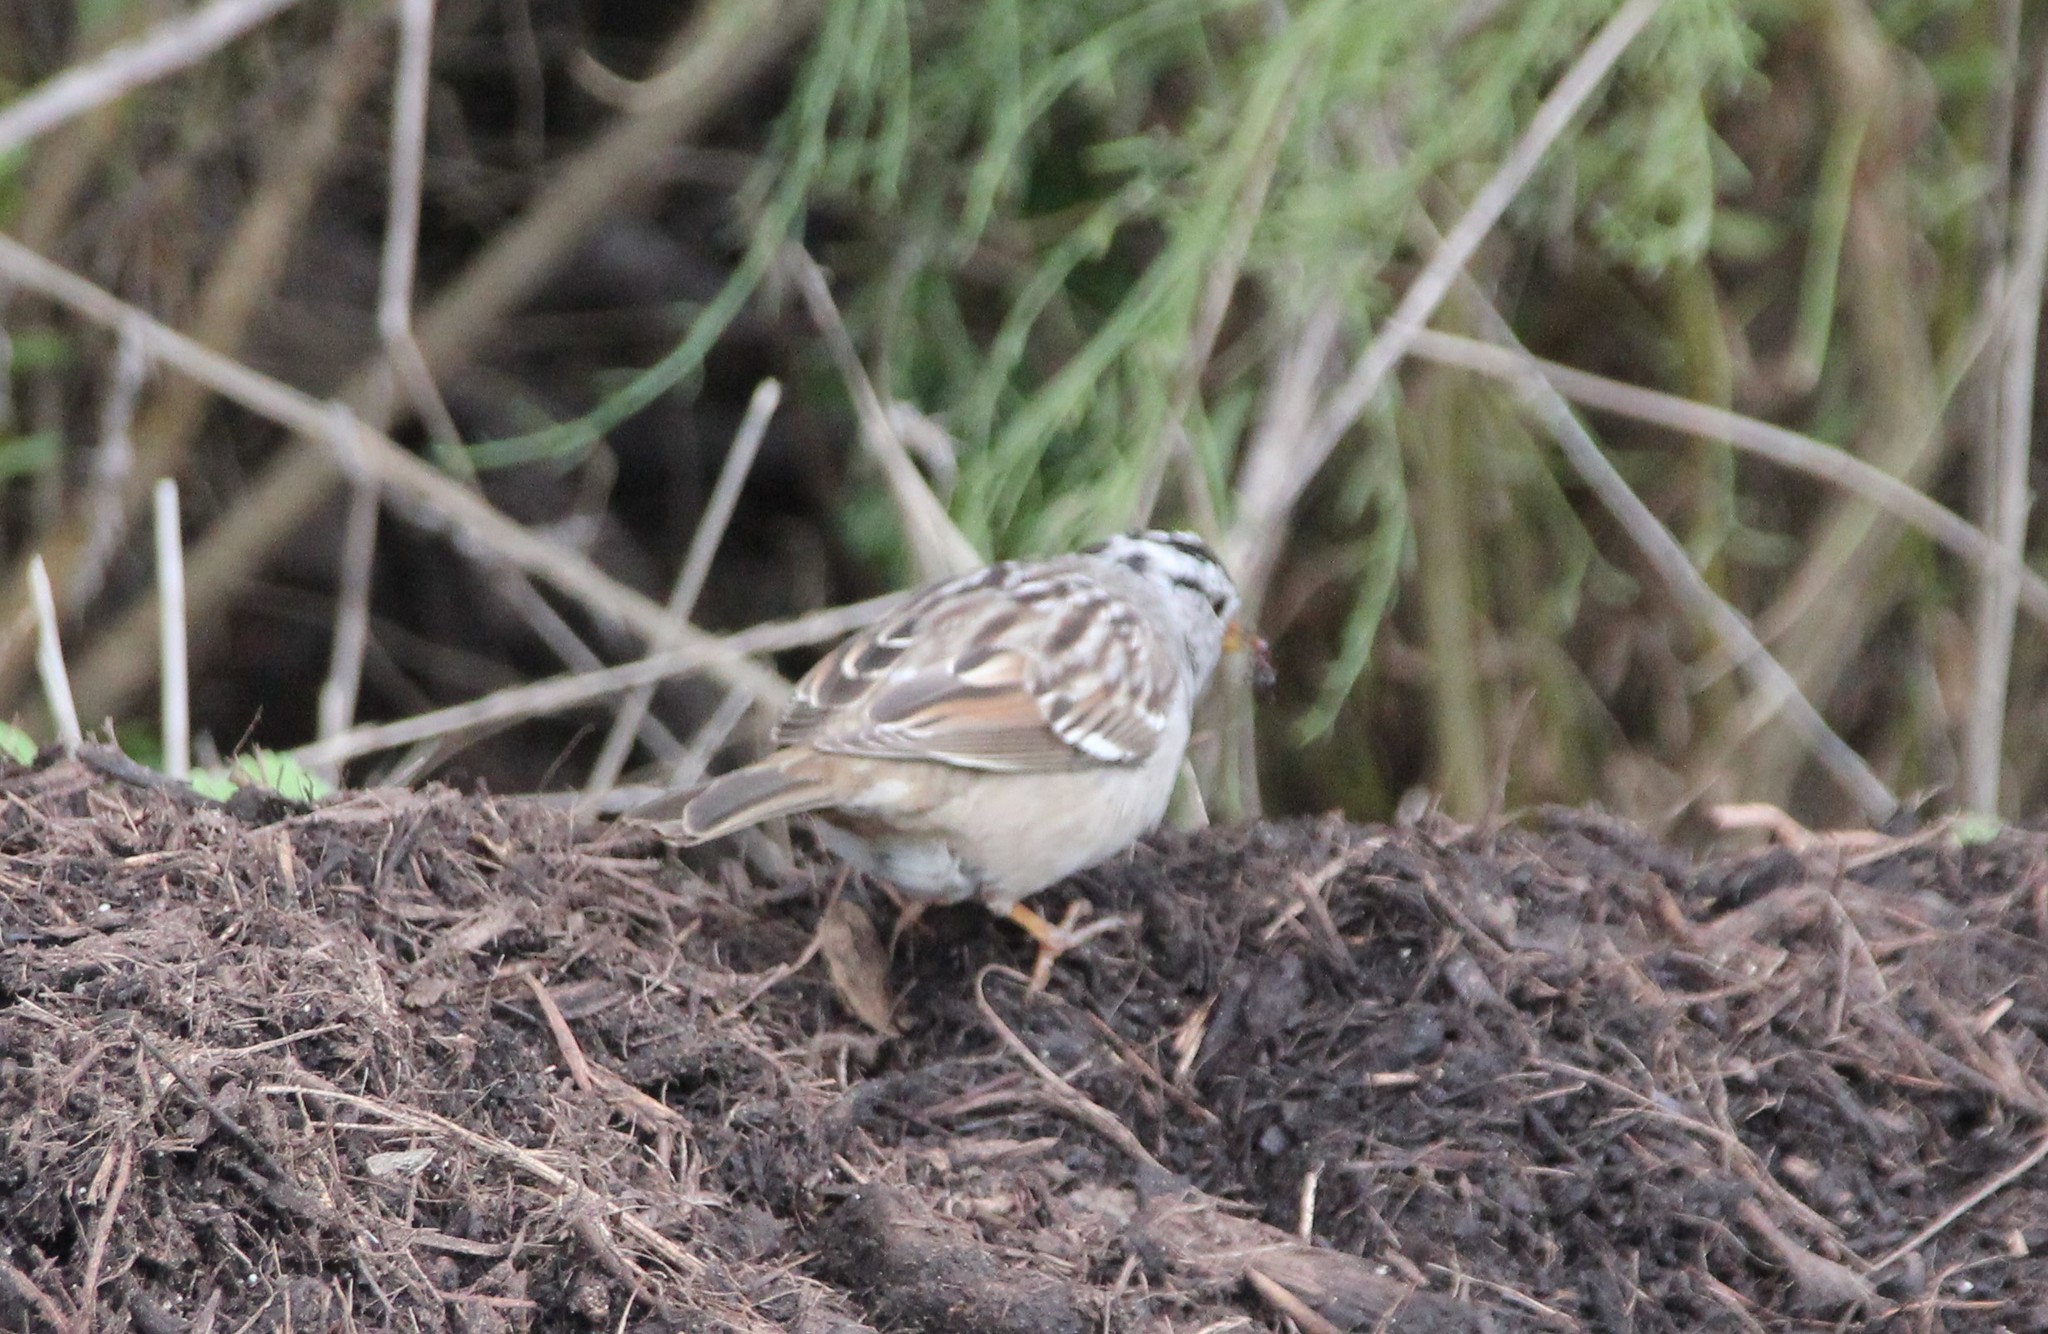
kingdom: Animalia
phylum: Chordata
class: Aves
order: Passeriformes
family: Passerellidae
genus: Zonotrichia
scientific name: Zonotrichia leucophrys
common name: White-crowned sparrow
